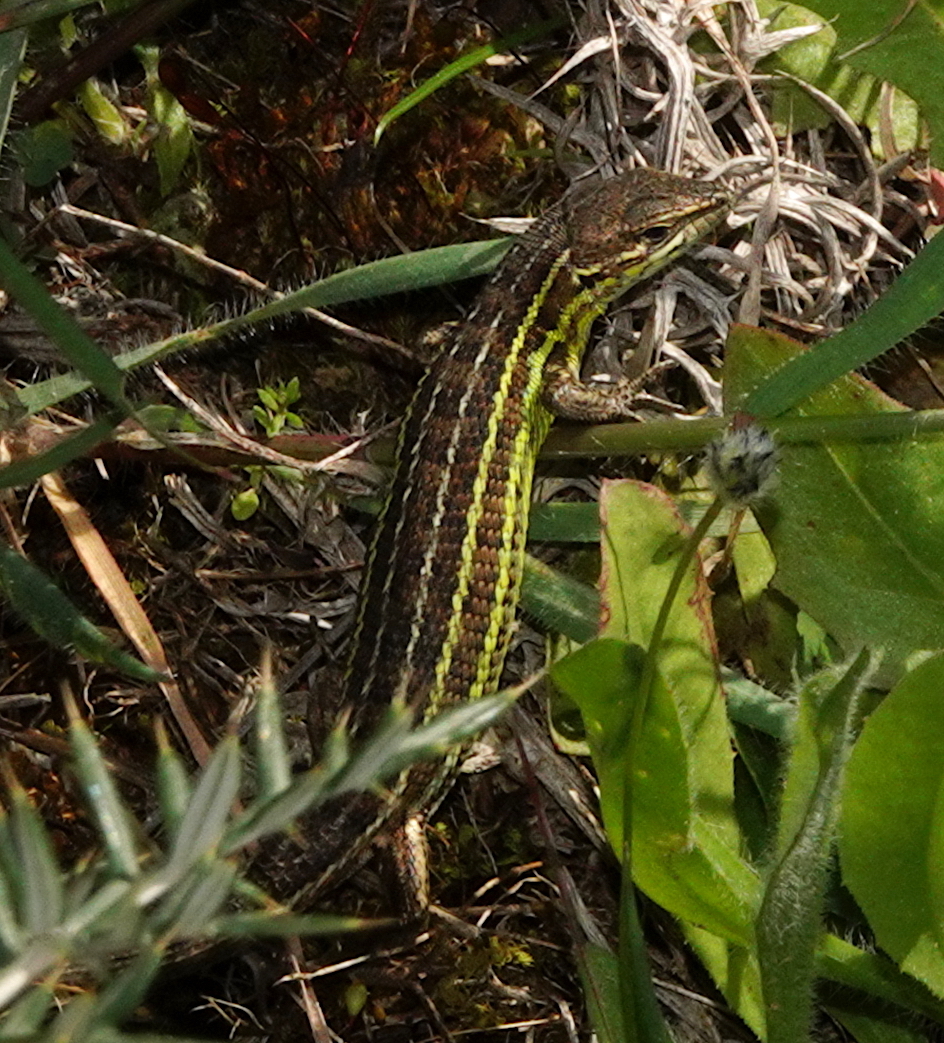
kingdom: Animalia
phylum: Chordata
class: Squamata
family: Lacertidae
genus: Psammodromus
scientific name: Psammodromus occidentalis
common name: Western psammodromus
